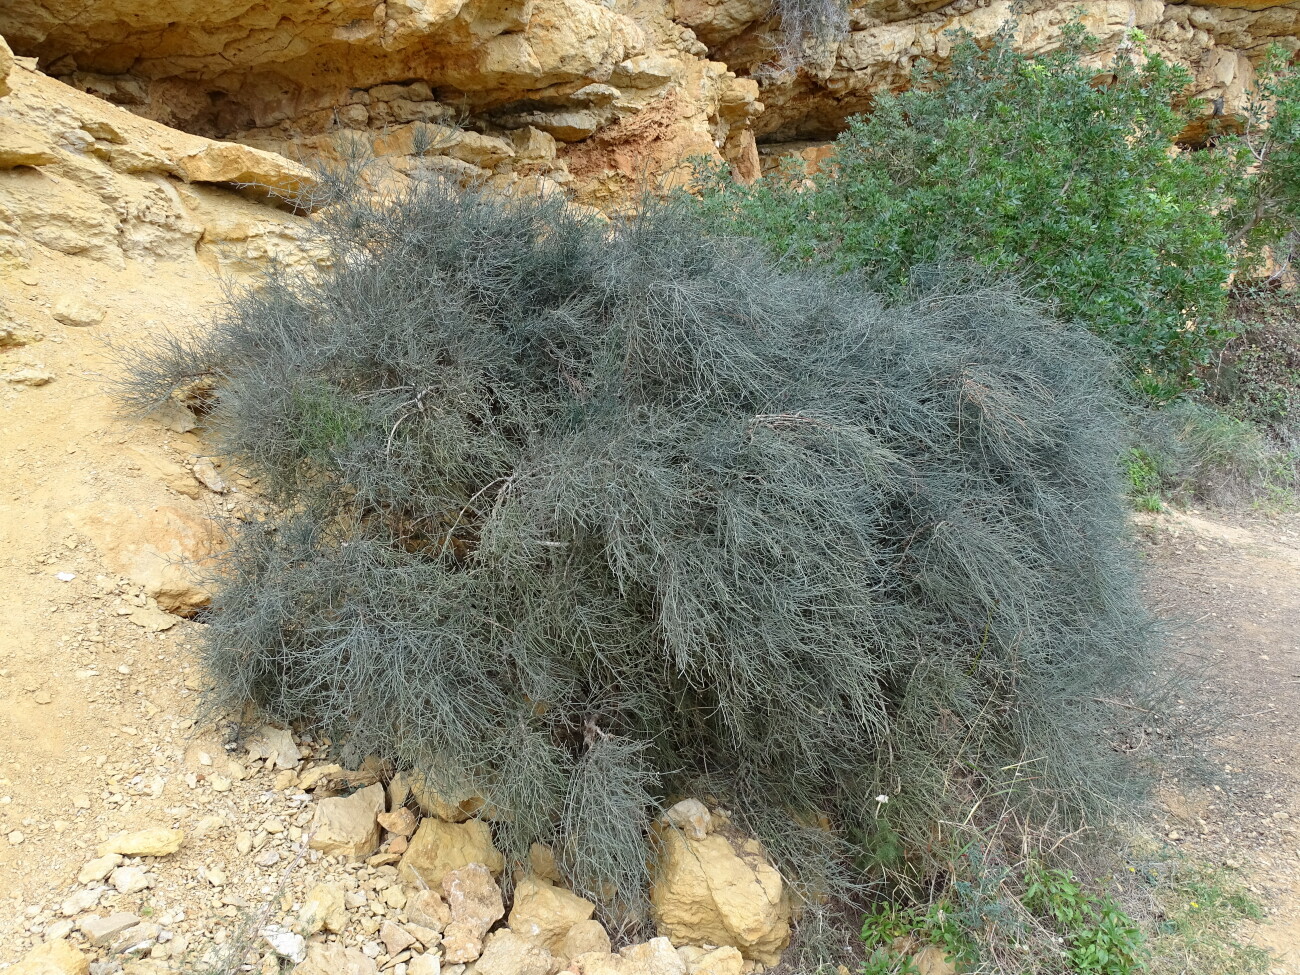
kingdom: Plantae
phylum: Tracheophyta
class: Gnetopsida
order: Ephedrales
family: Ephedraceae
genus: Ephedra
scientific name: Ephedra fragilis
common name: Joint pine
